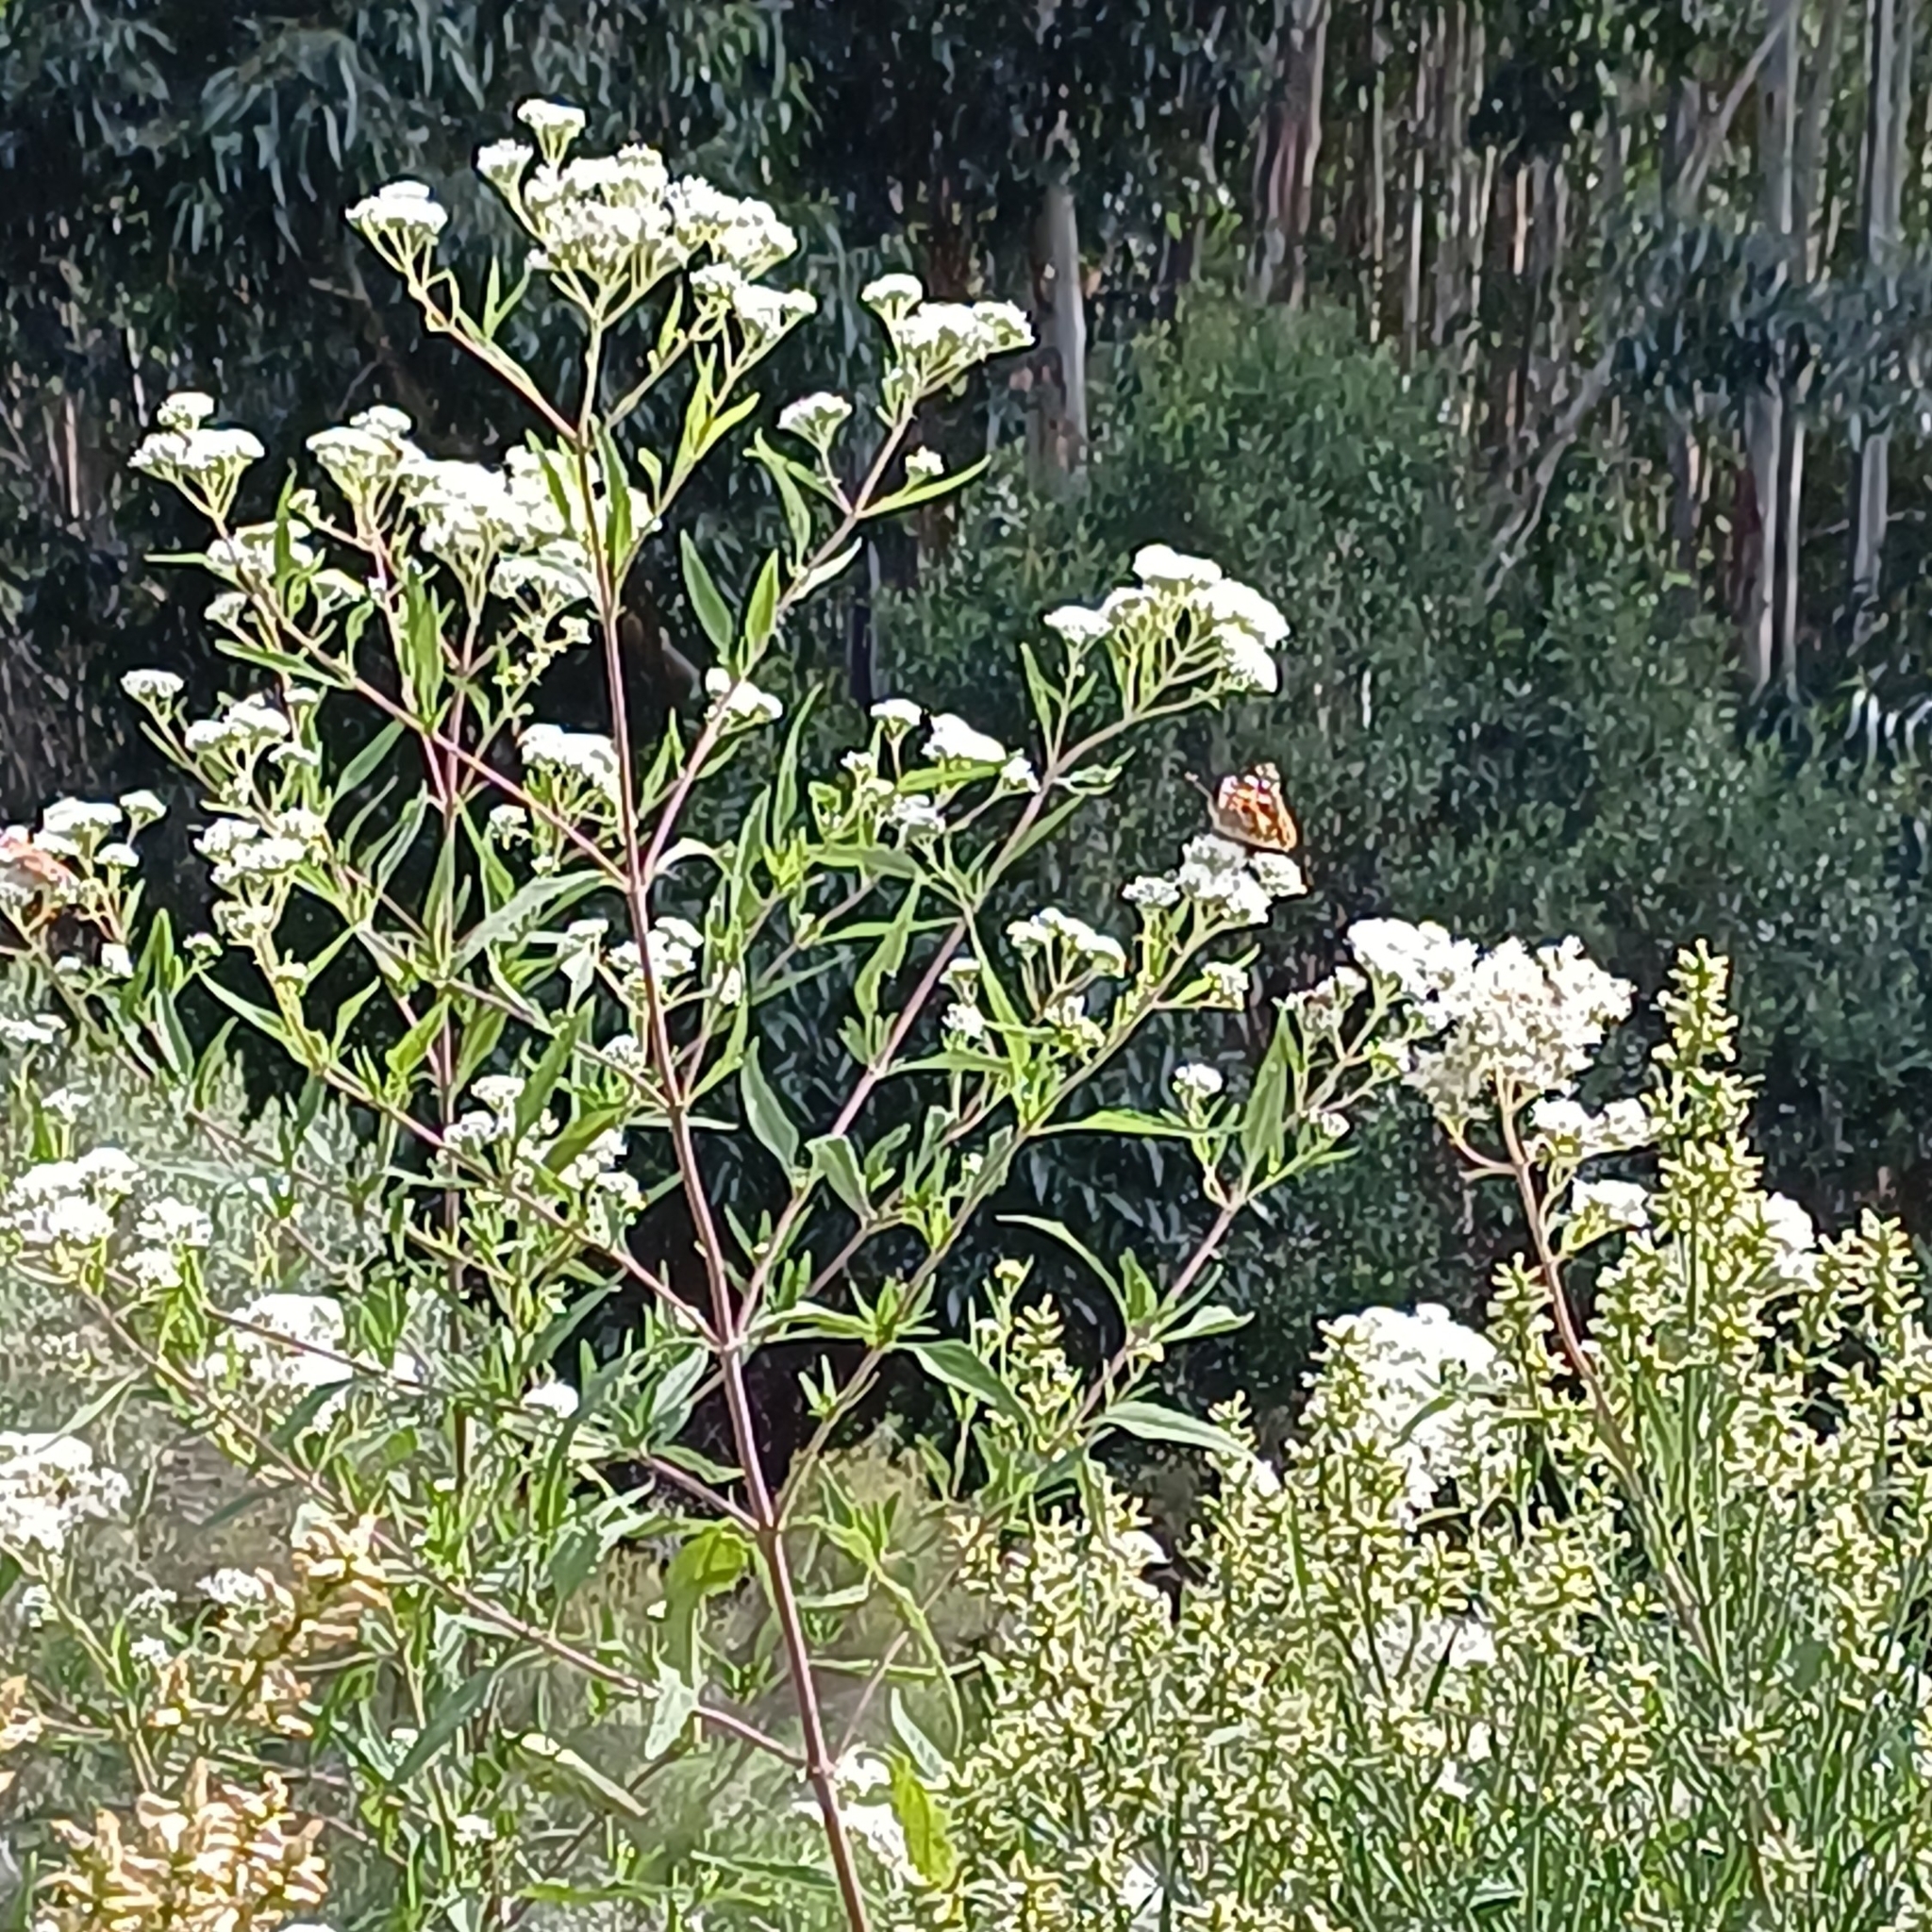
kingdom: Plantae
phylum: Tracheophyta
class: Magnoliopsida
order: Asterales
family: Asteraceae
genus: Austroeupatorium
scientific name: Austroeupatorium inulifolium
